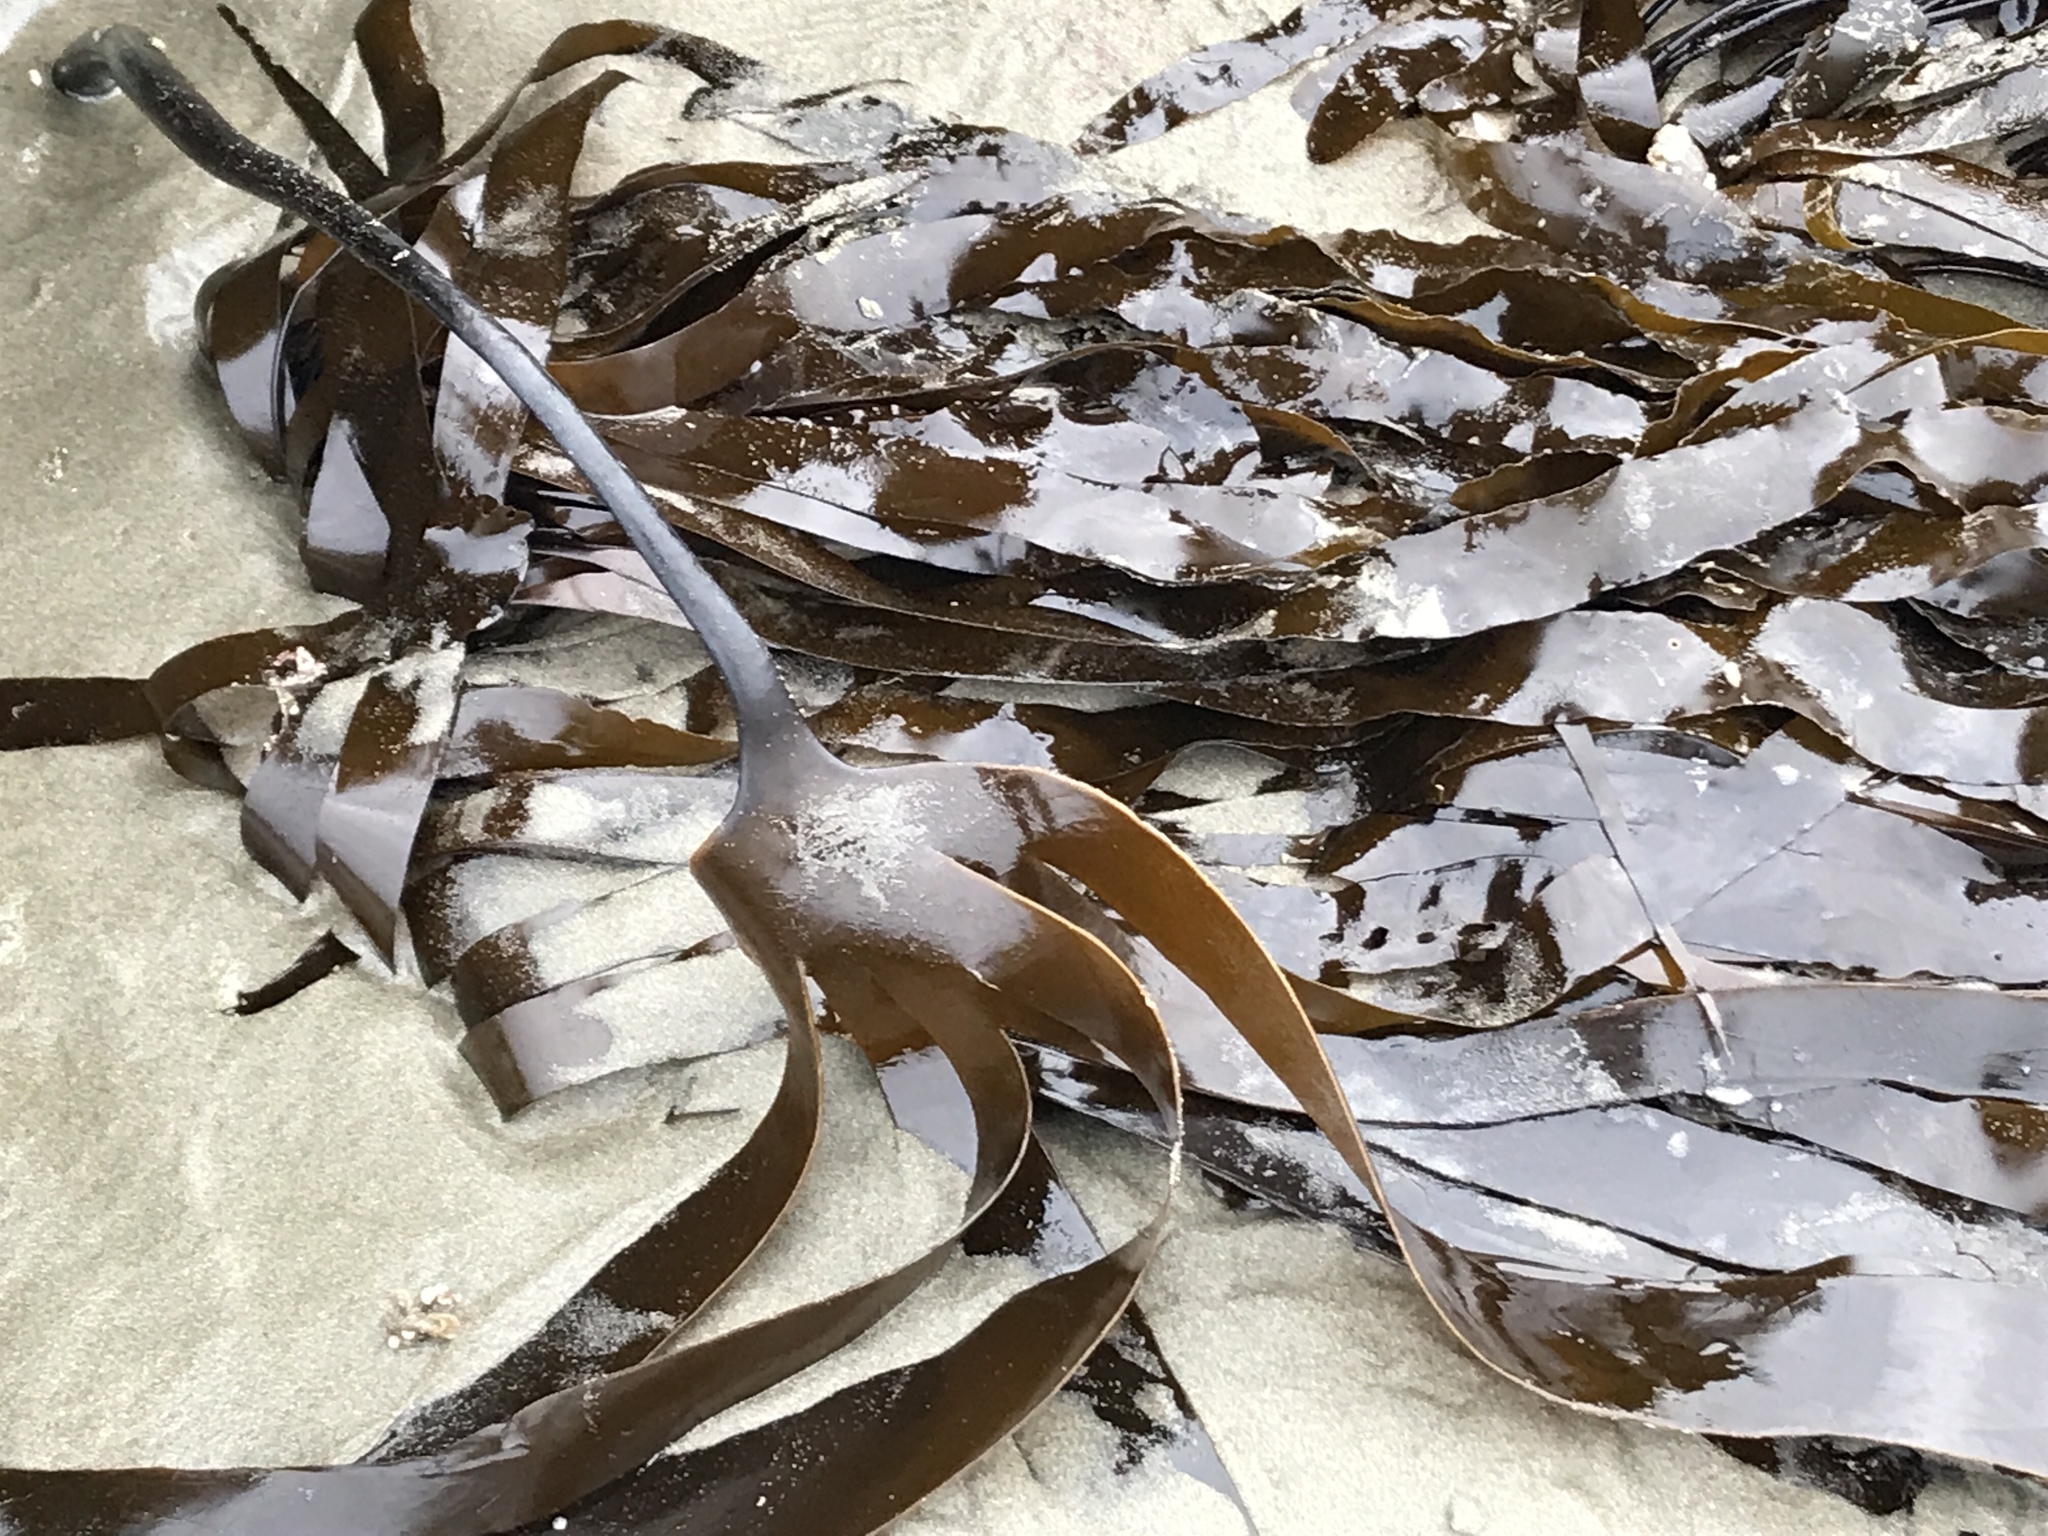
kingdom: Chromista
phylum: Ochrophyta
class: Phaeophyceae
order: Laminariales
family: Laminariaceae
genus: Laminaria
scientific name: Laminaria setchellii
